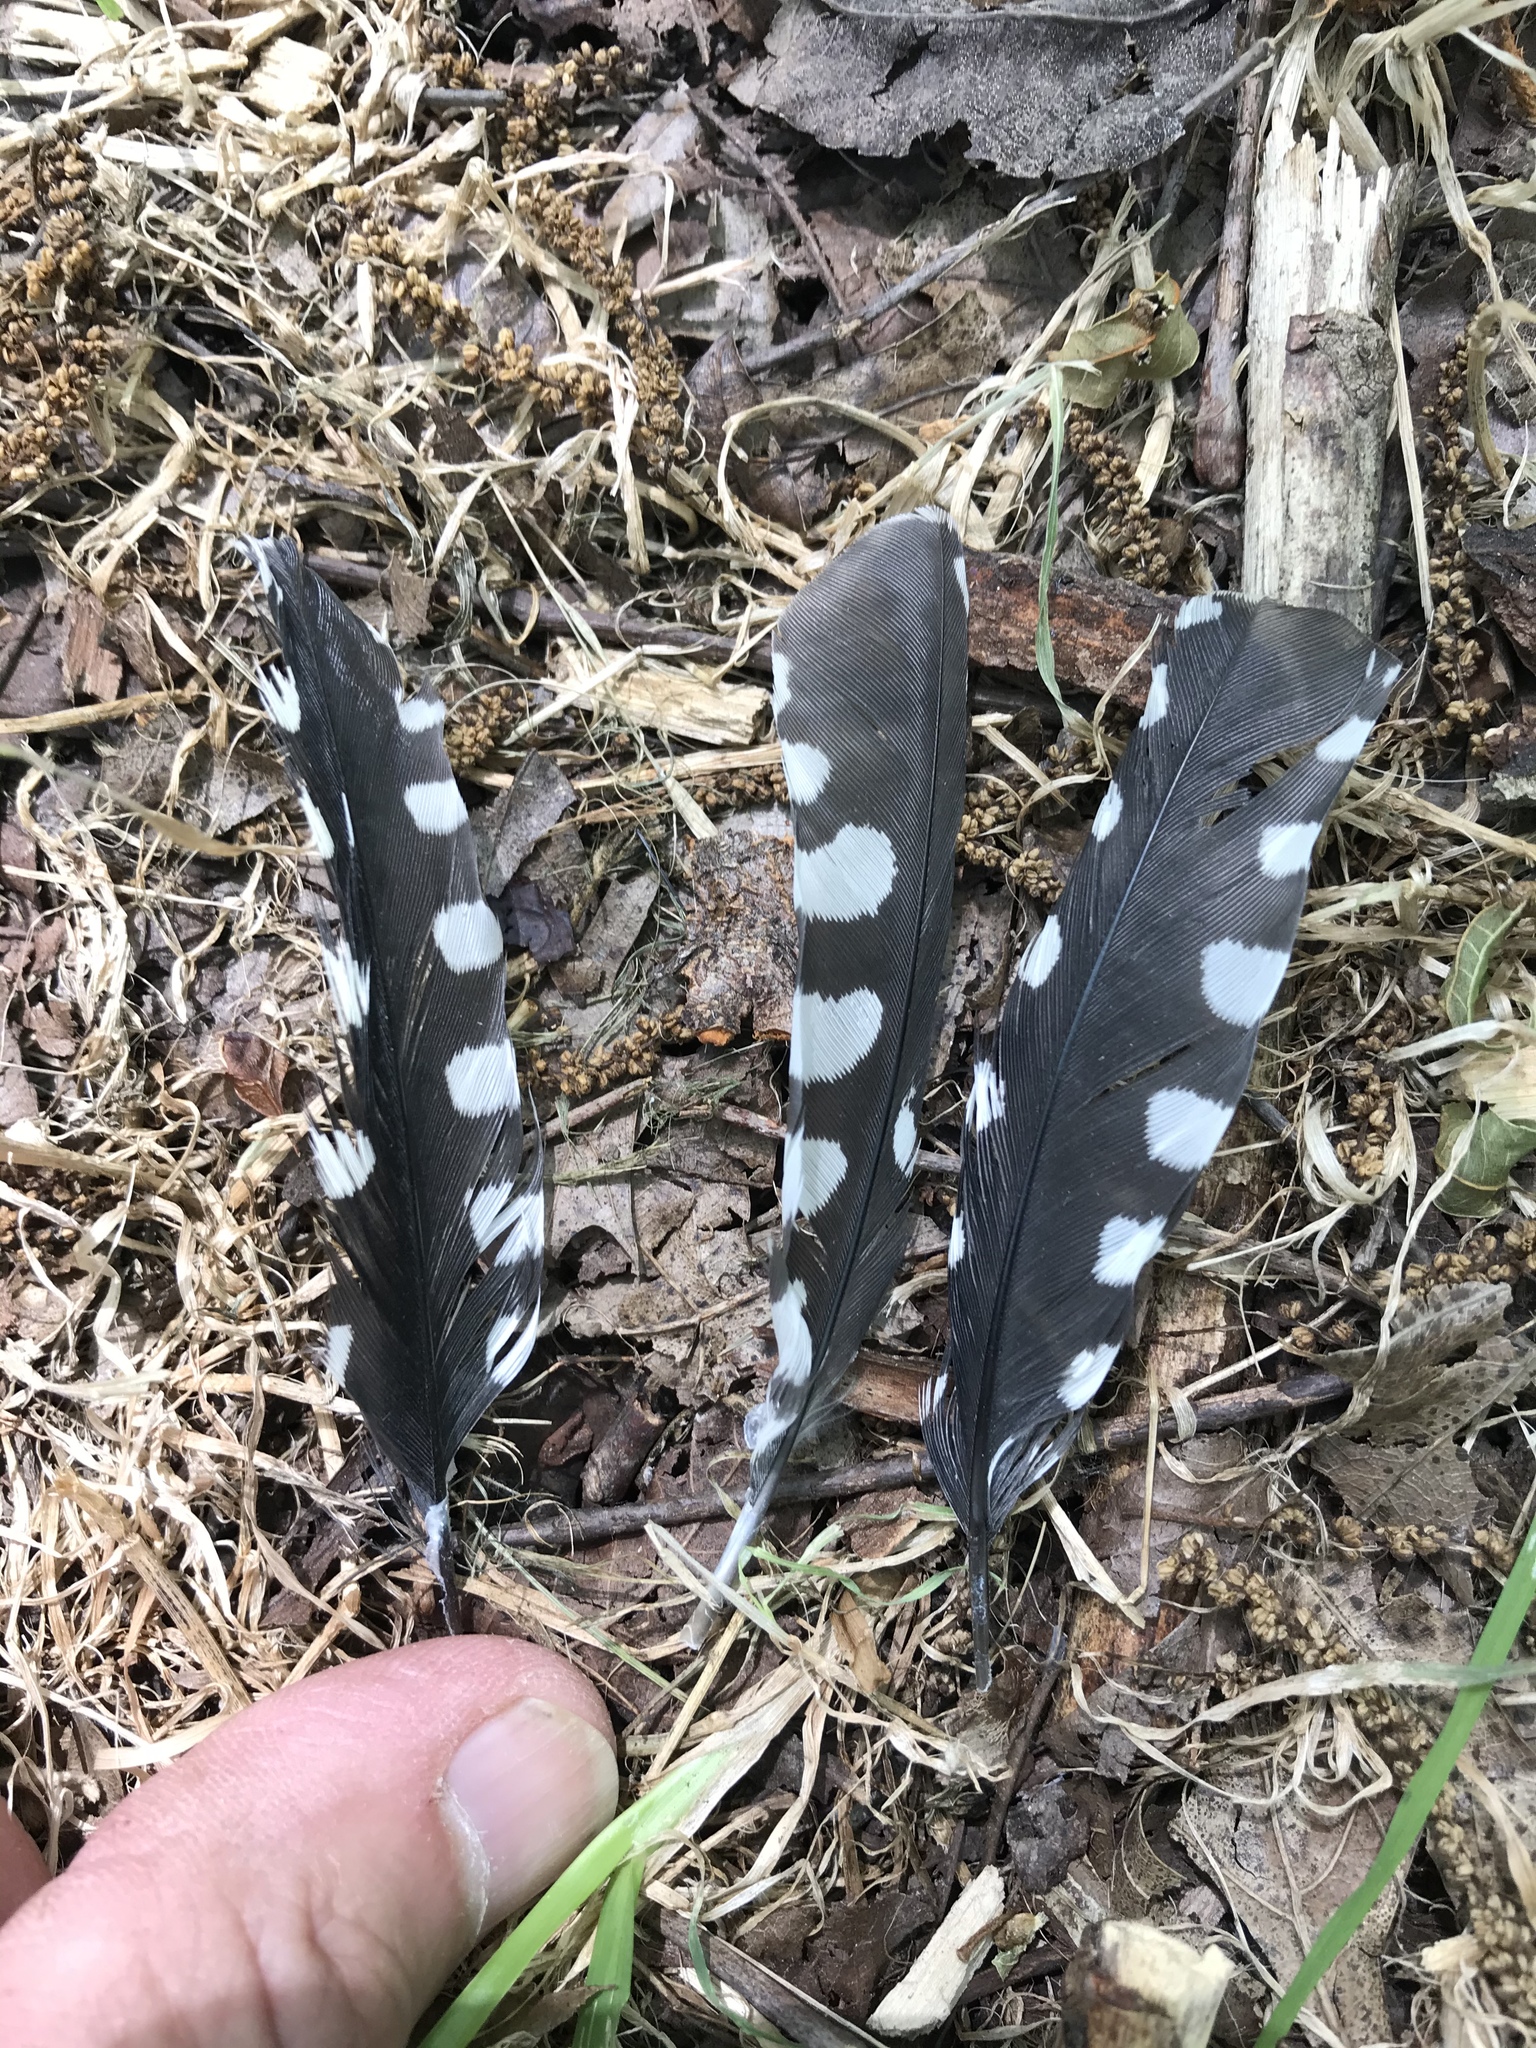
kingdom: Animalia
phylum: Chordata
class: Aves
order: Piciformes
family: Picidae
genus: Dryobates
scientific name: Dryobates pubescens
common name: Downy woodpecker
